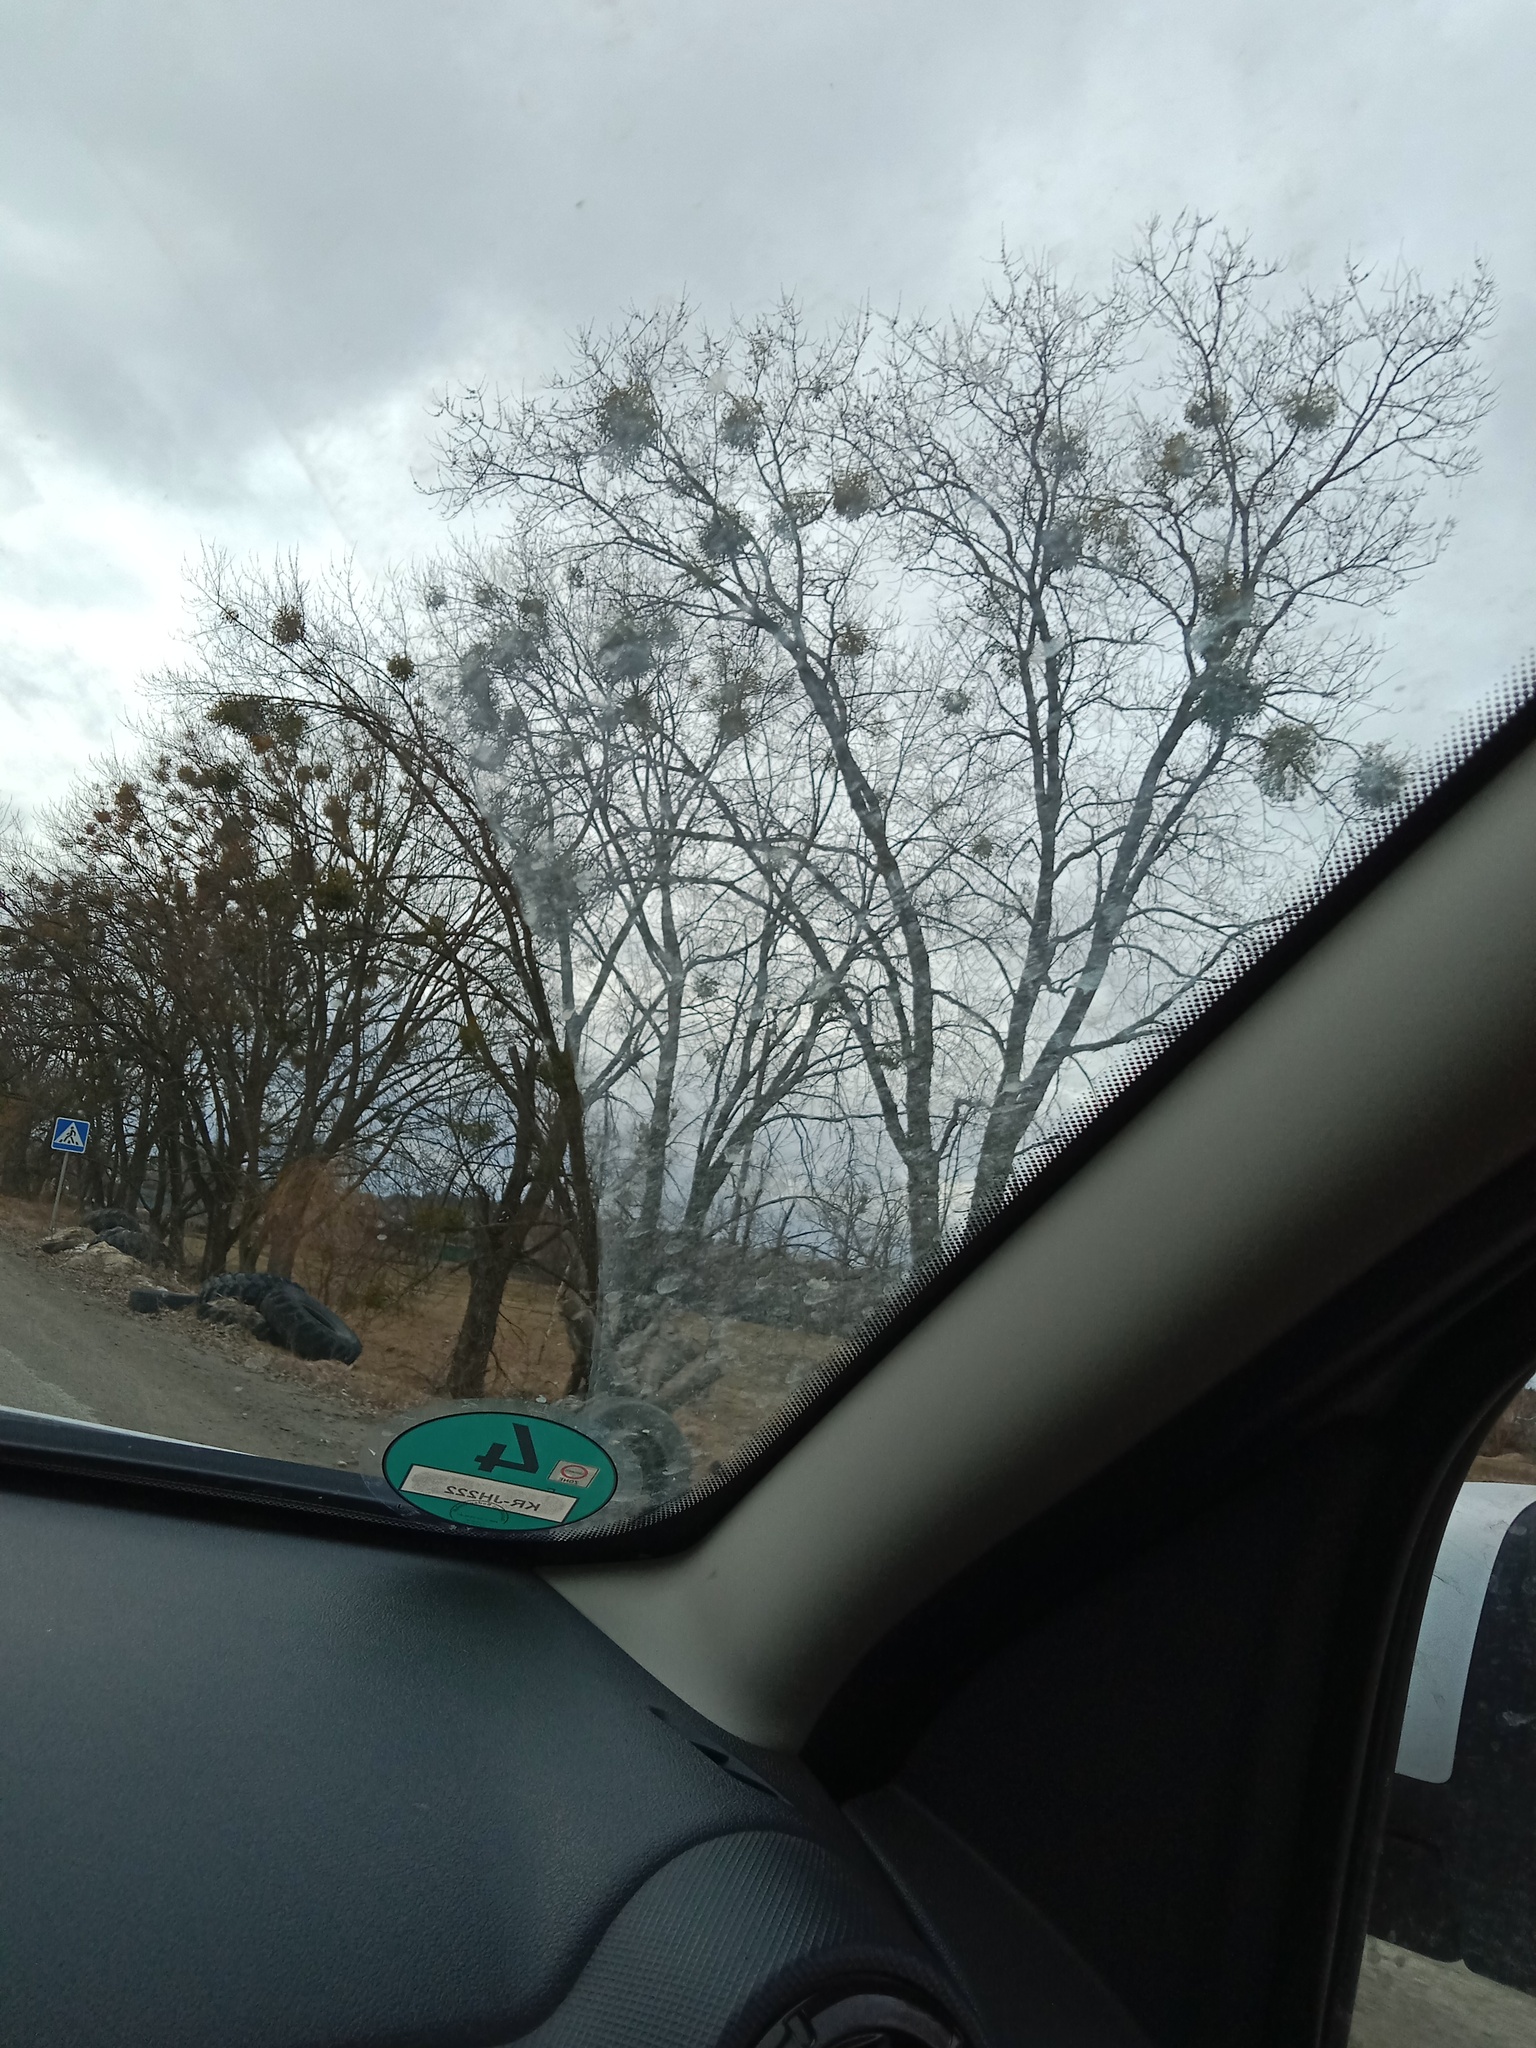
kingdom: Plantae
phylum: Tracheophyta
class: Magnoliopsida
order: Santalales
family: Viscaceae
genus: Viscum
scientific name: Viscum album
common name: Mistletoe
